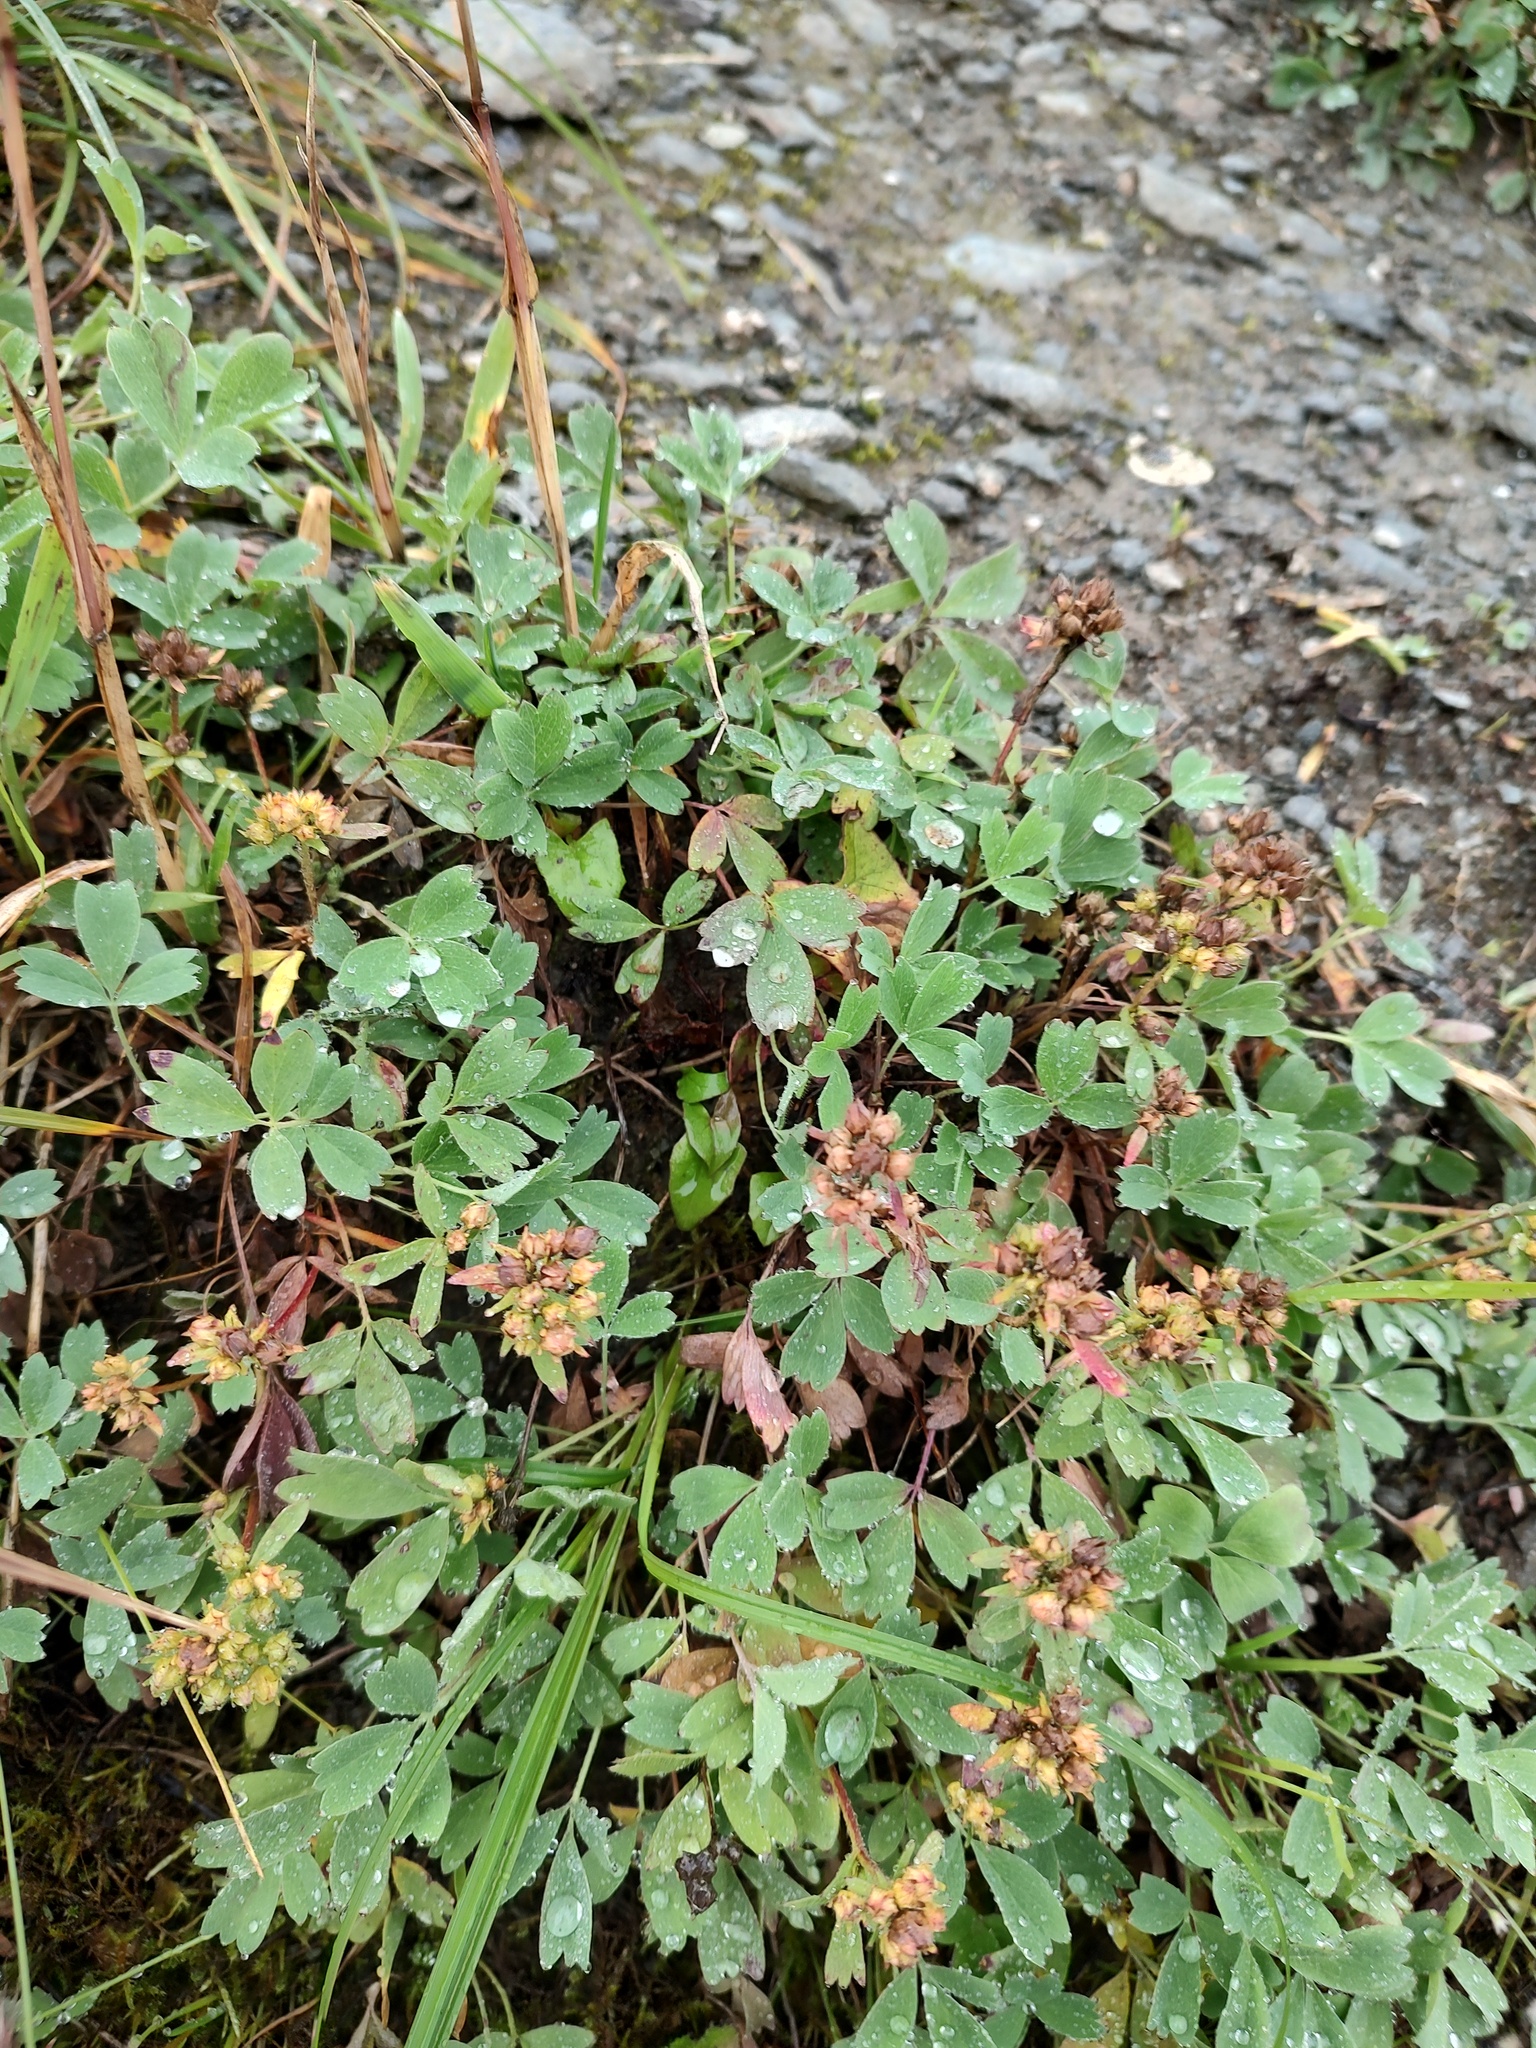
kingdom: Plantae
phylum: Tracheophyta
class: Magnoliopsida
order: Rosales
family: Rosaceae
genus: Sibbaldia
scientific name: Sibbaldia procumbens
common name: Creeping sibbaldia
